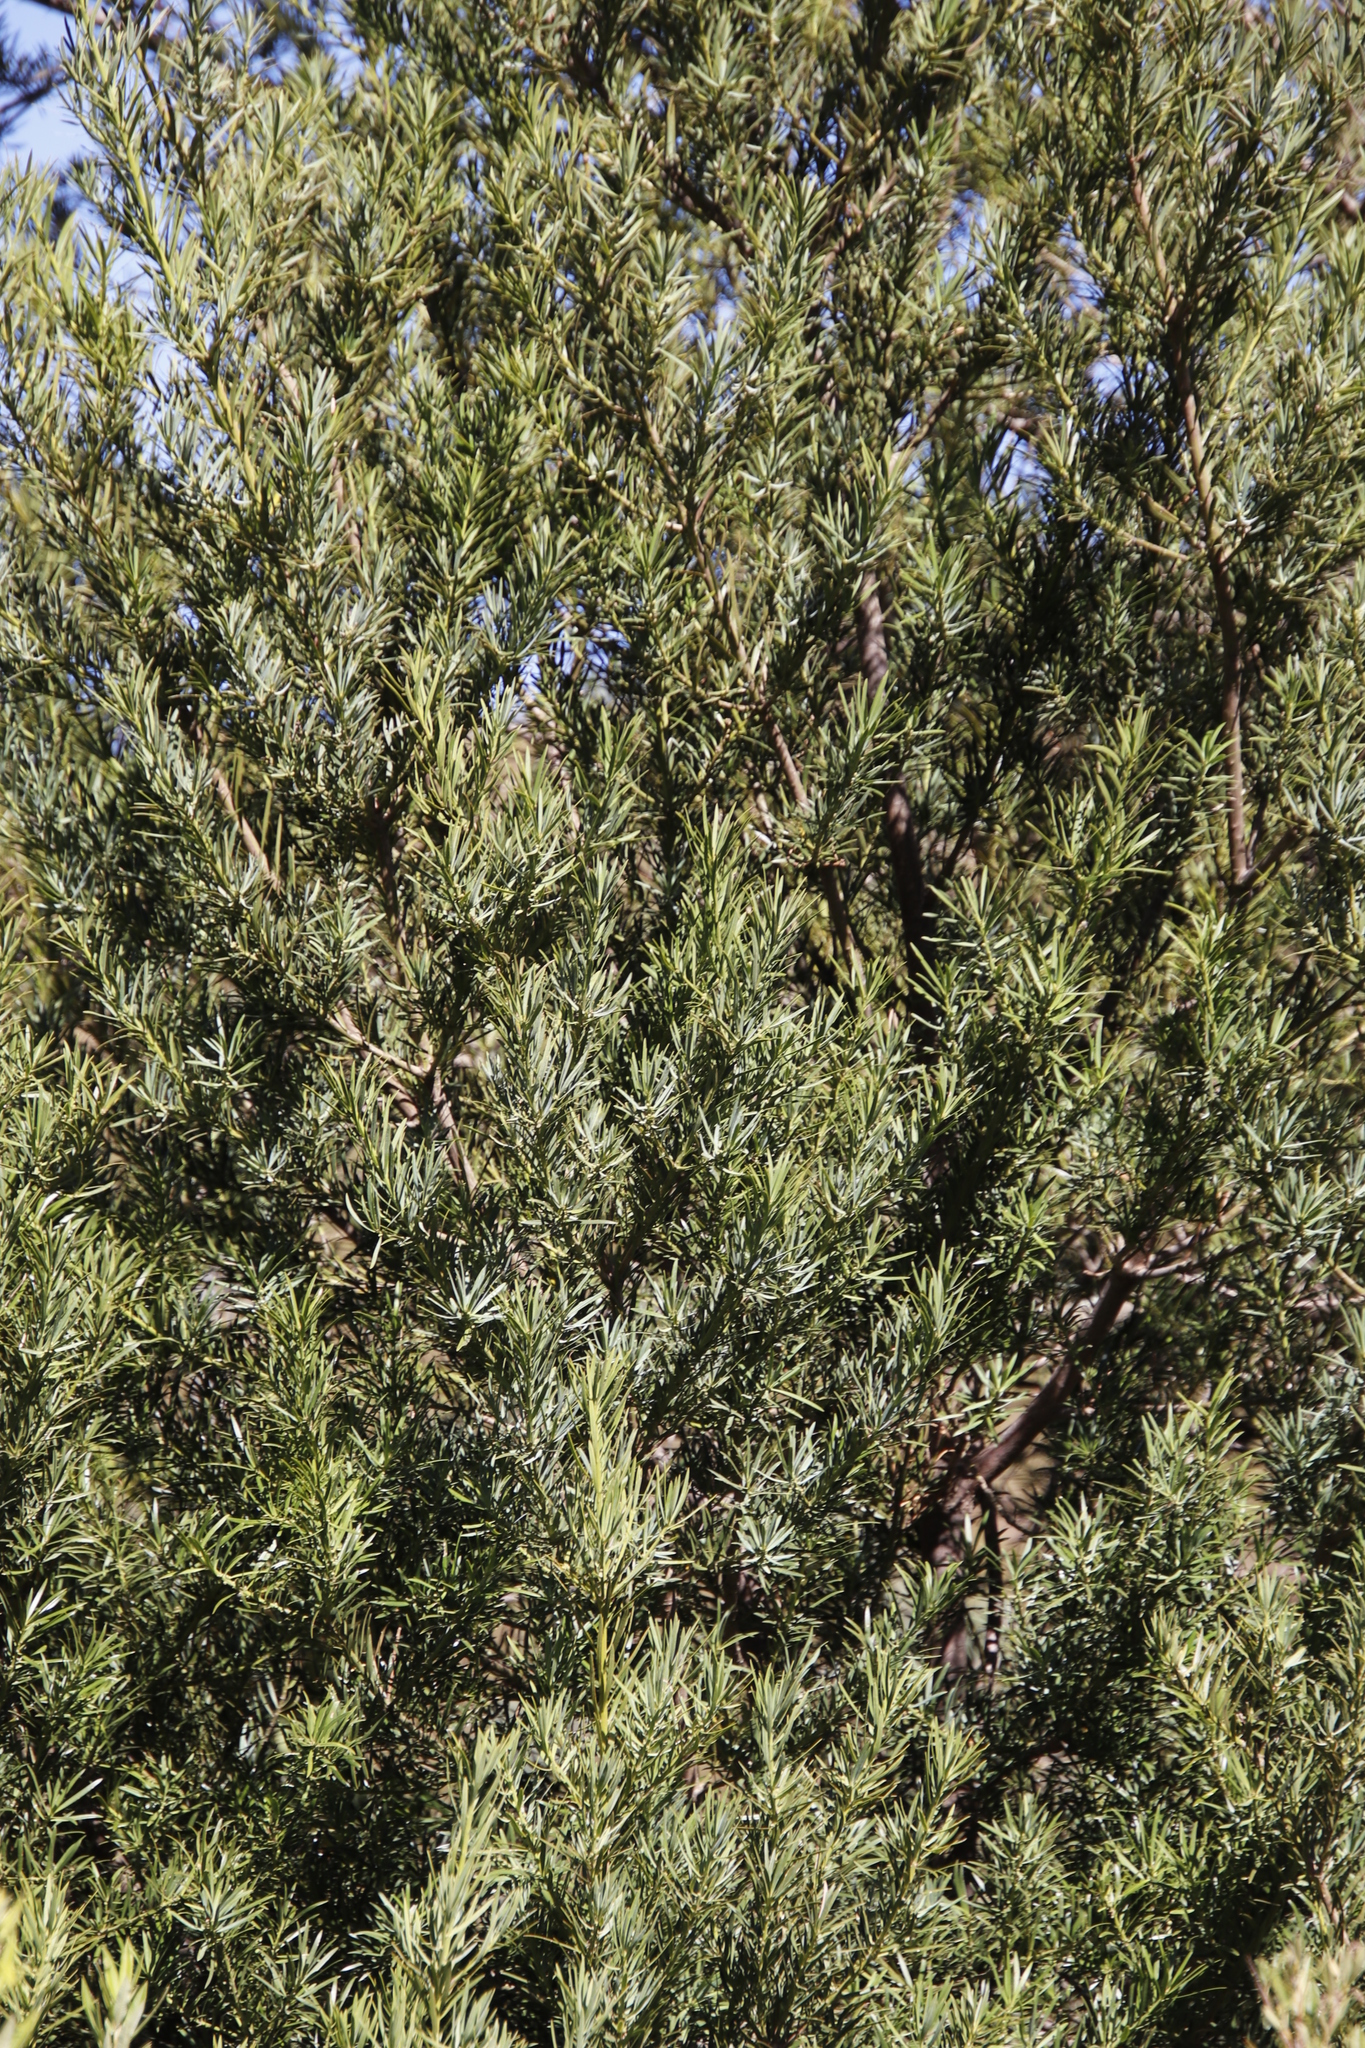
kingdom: Plantae
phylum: Tracheophyta
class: Pinopsida
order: Pinales
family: Podocarpaceae
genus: Podocarpus
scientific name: Podocarpus elongatus
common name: Breede river yellowwood
